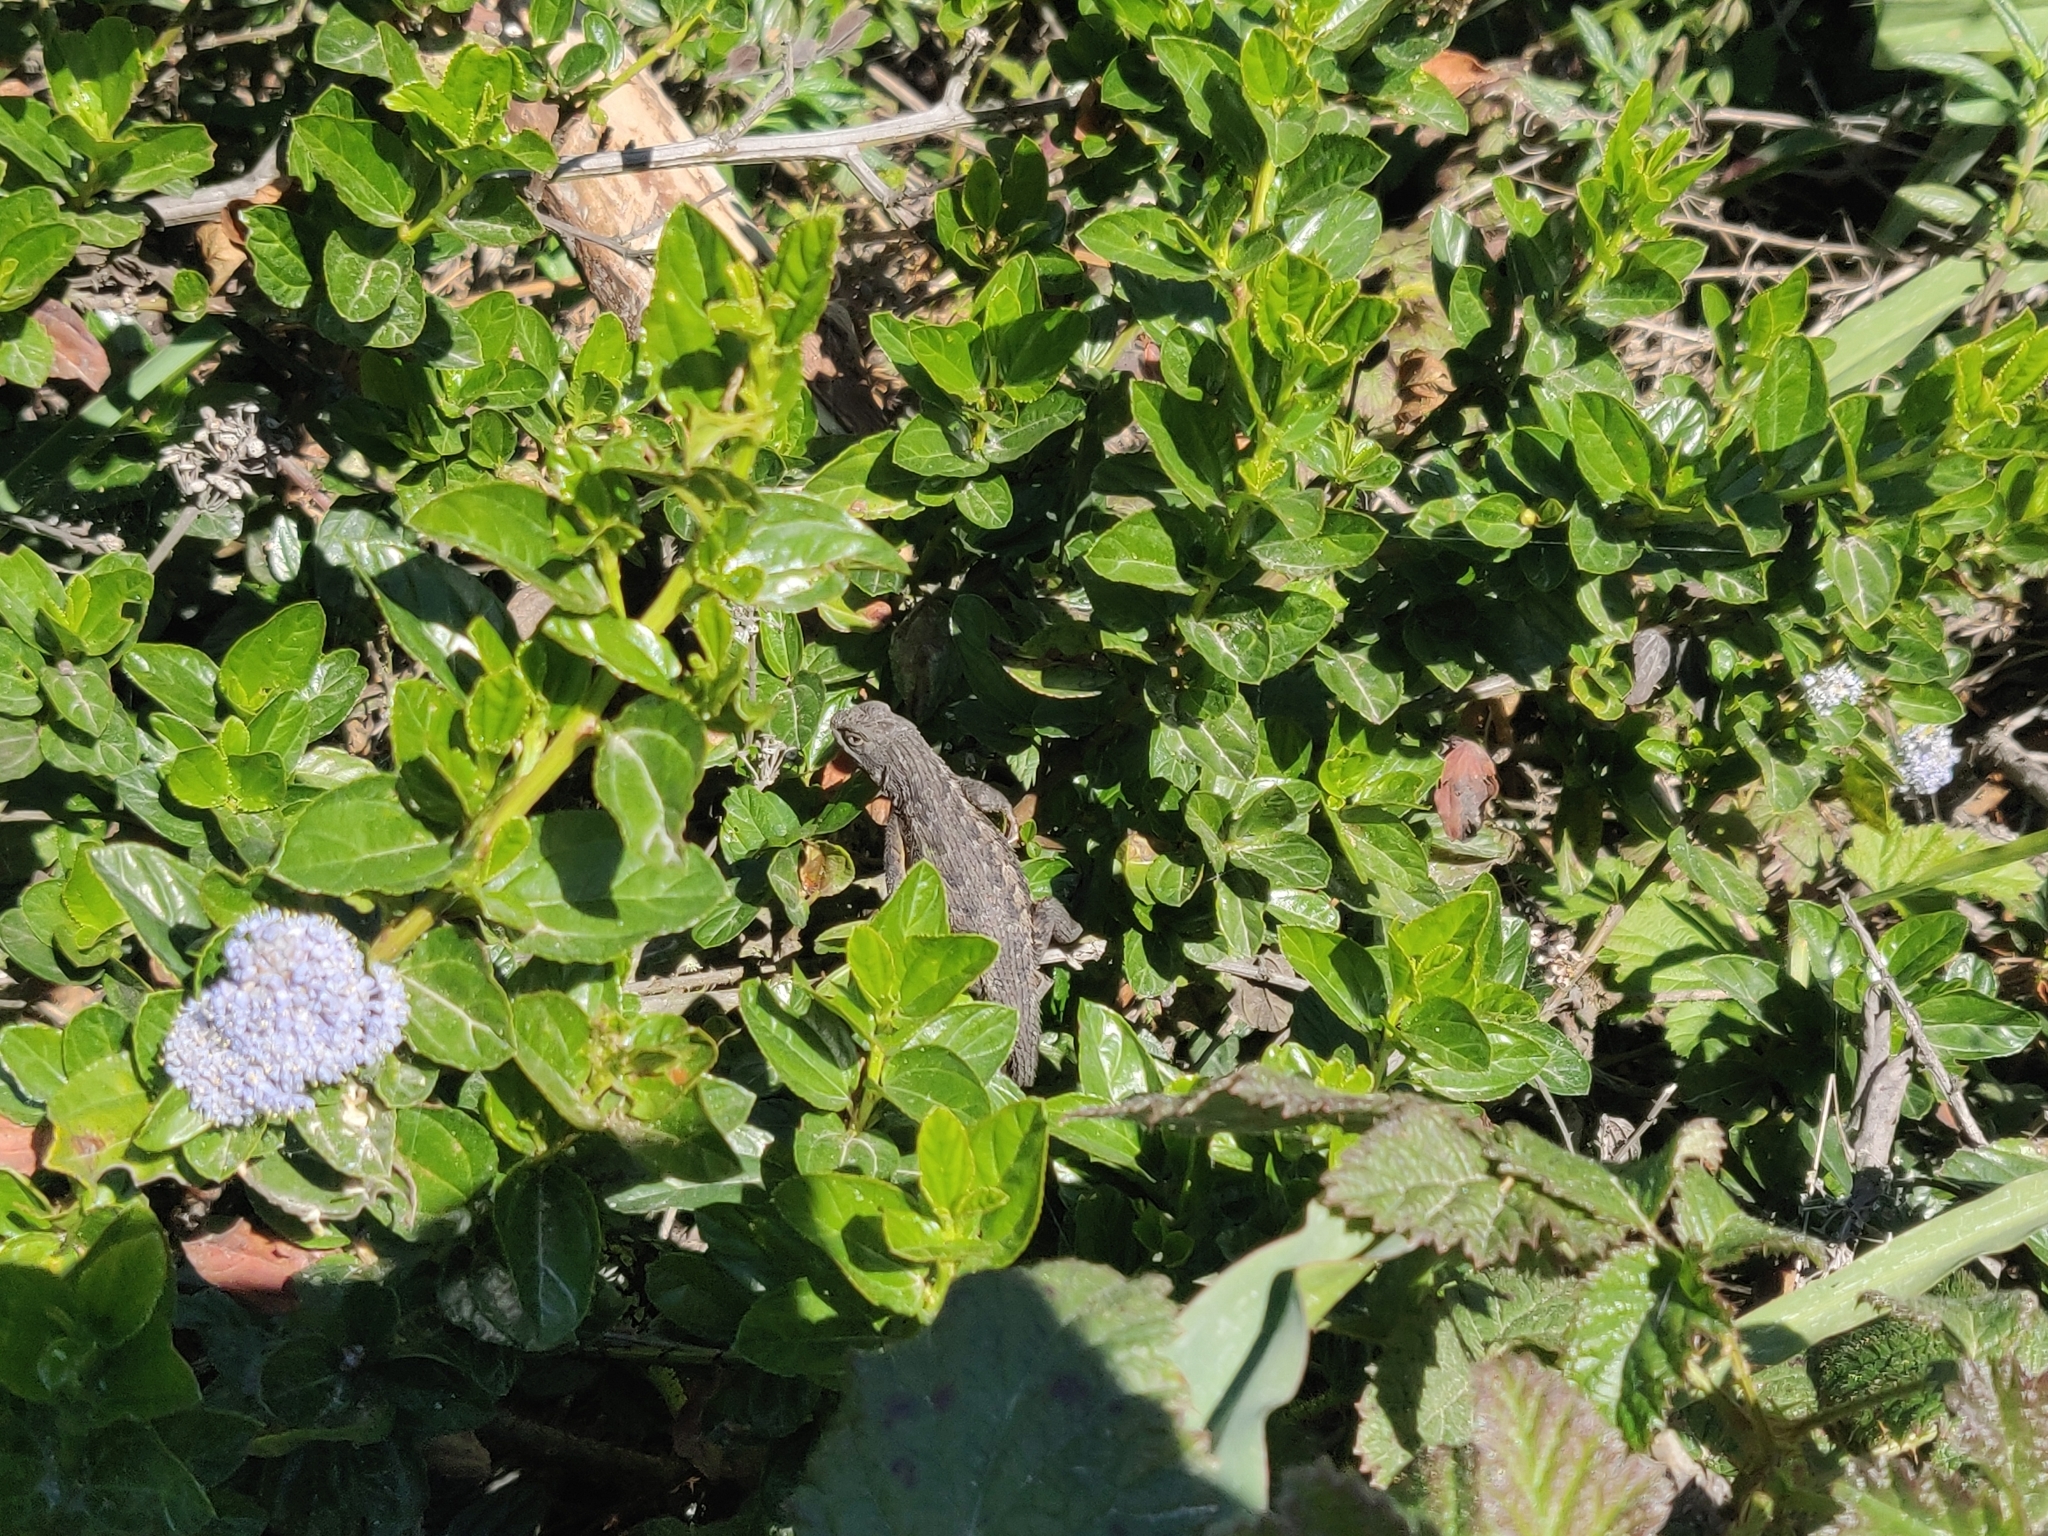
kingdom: Animalia
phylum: Chordata
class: Squamata
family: Phrynosomatidae
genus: Sceloporus
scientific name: Sceloporus occidentalis
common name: Western fence lizard
